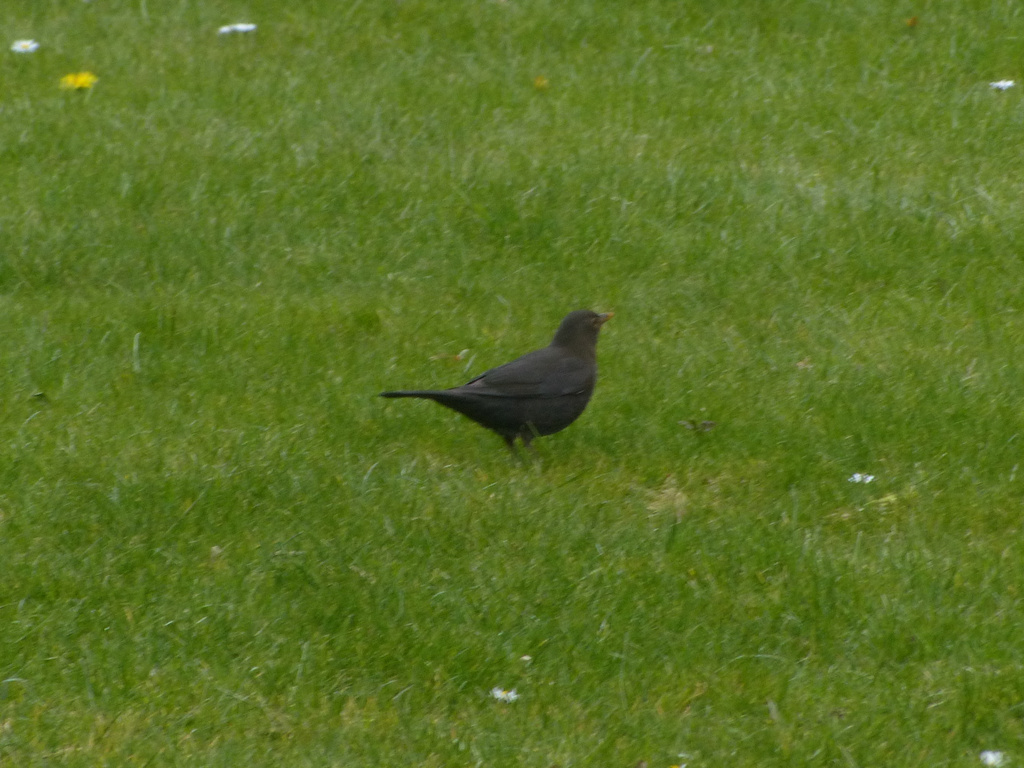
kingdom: Animalia
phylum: Chordata
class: Aves
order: Passeriformes
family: Turdidae
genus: Turdus
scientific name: Turdus merula
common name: Common blackbird
